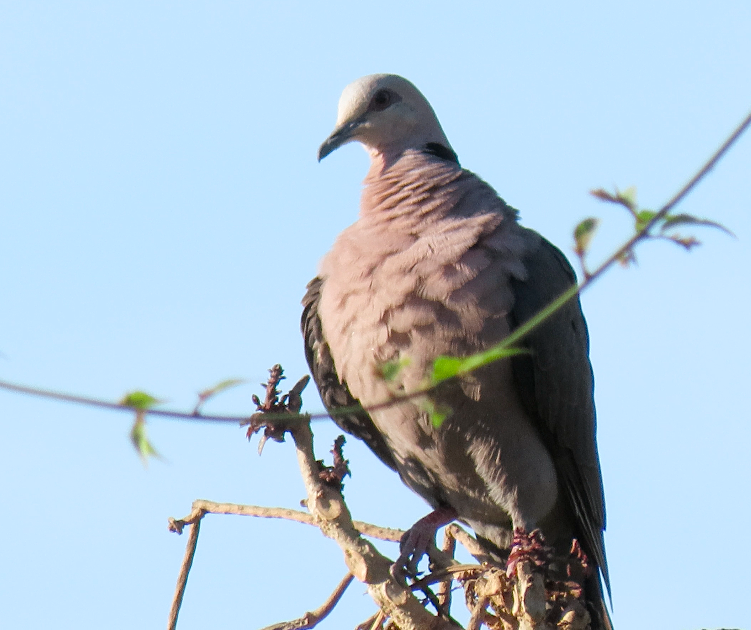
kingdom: Animalia
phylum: Chordata
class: Aves
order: Columbiformes
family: Columbidae
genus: Streptopelia
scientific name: Streptopelia semitorquata
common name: Red-eyed dove
